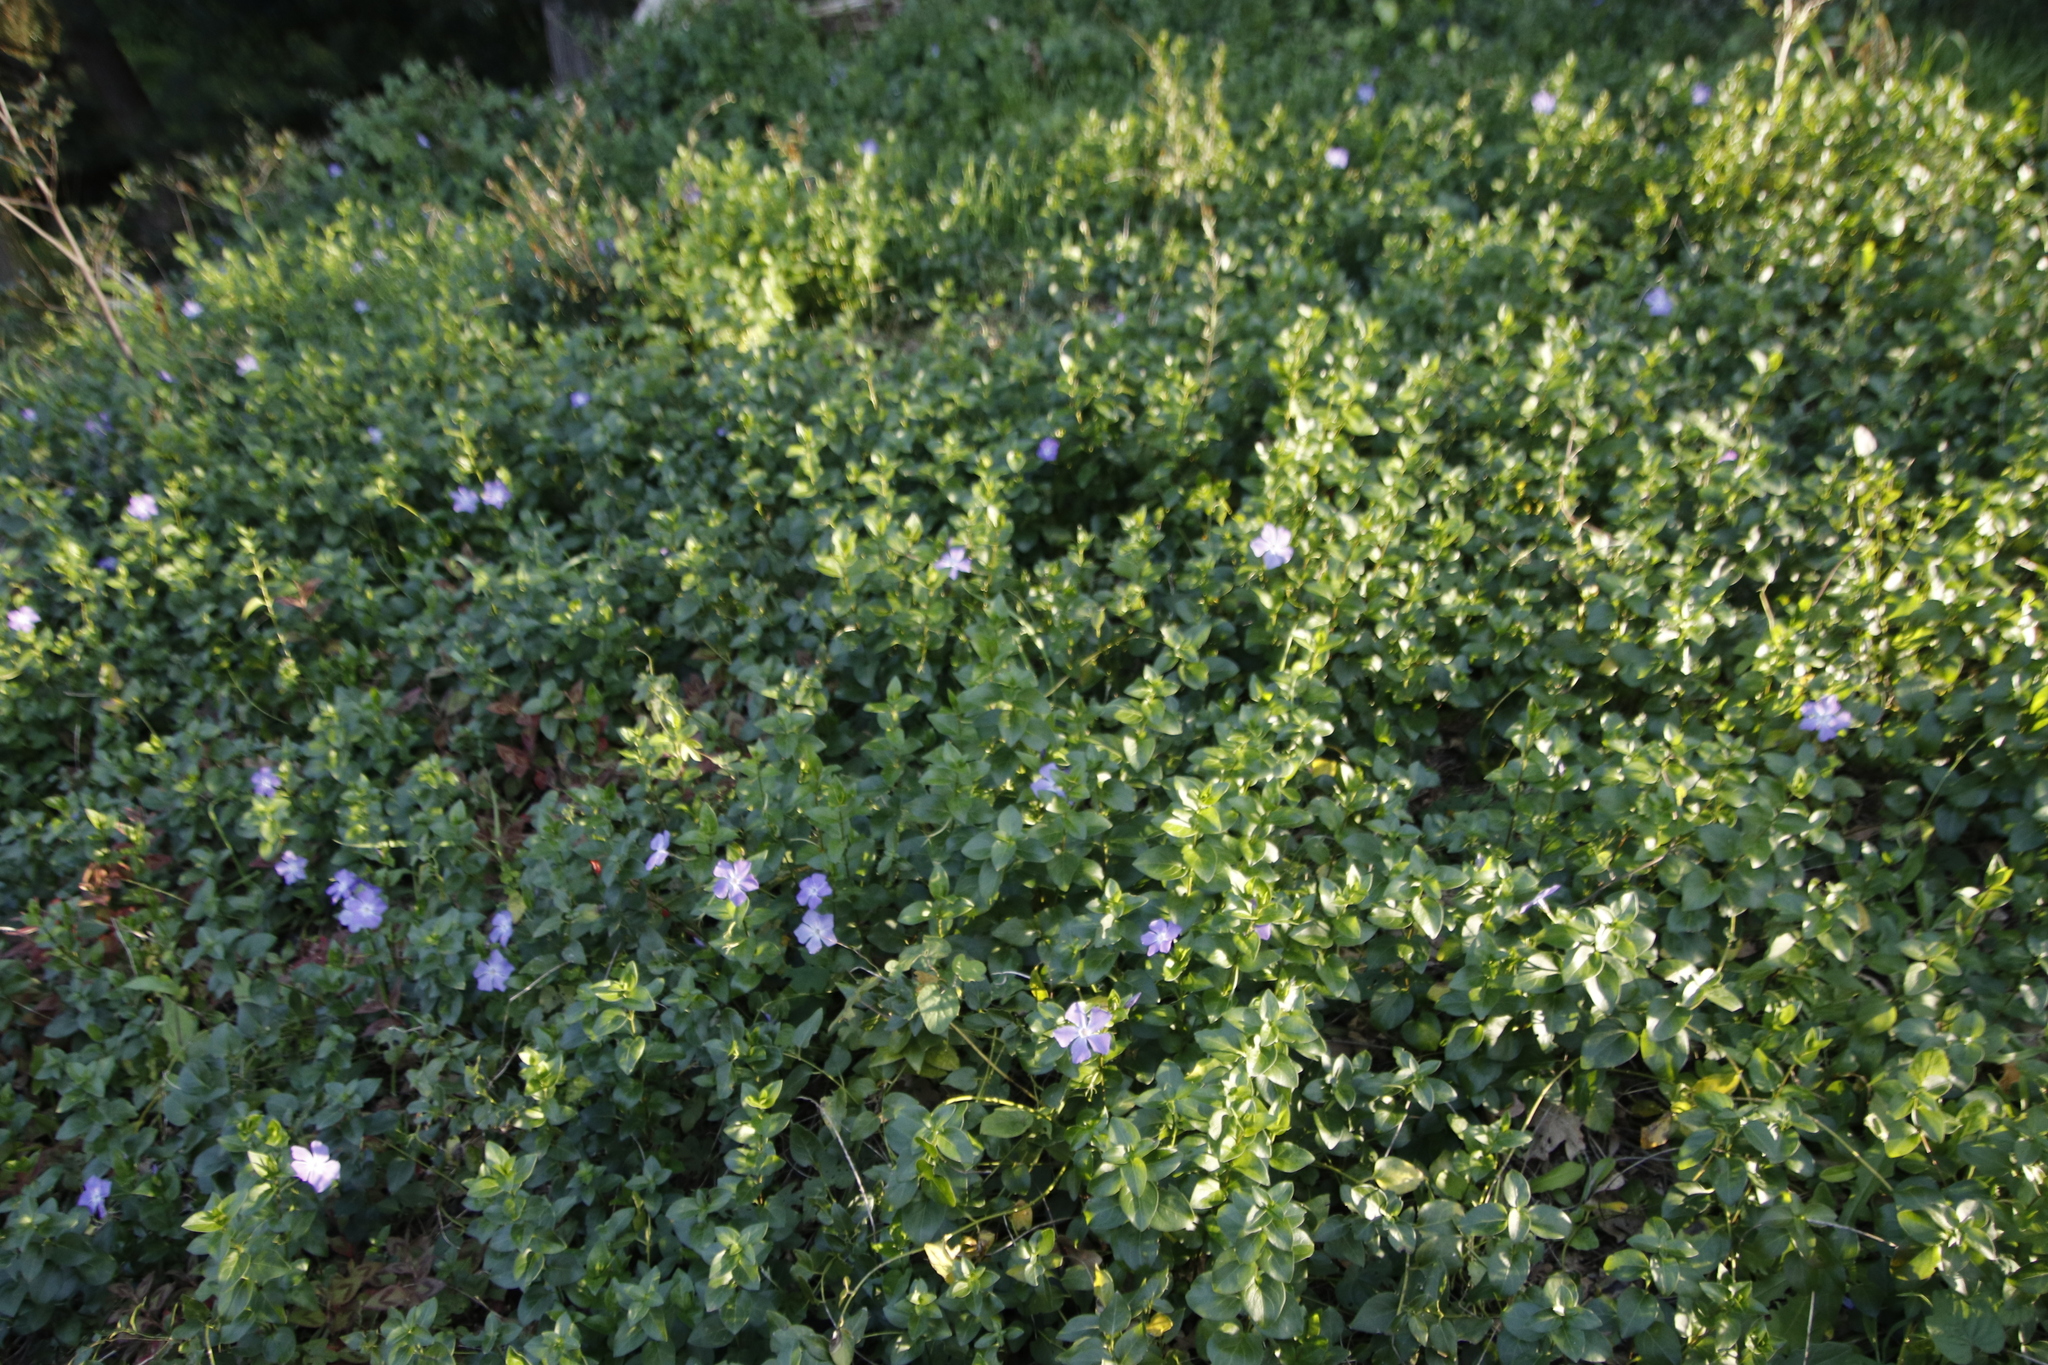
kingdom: Plantae
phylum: Tracheophyta
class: Magnoliopsida
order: Gentianales
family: Apocynaceae
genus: Vinca
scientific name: Vinca major
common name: Greater periwinkle
